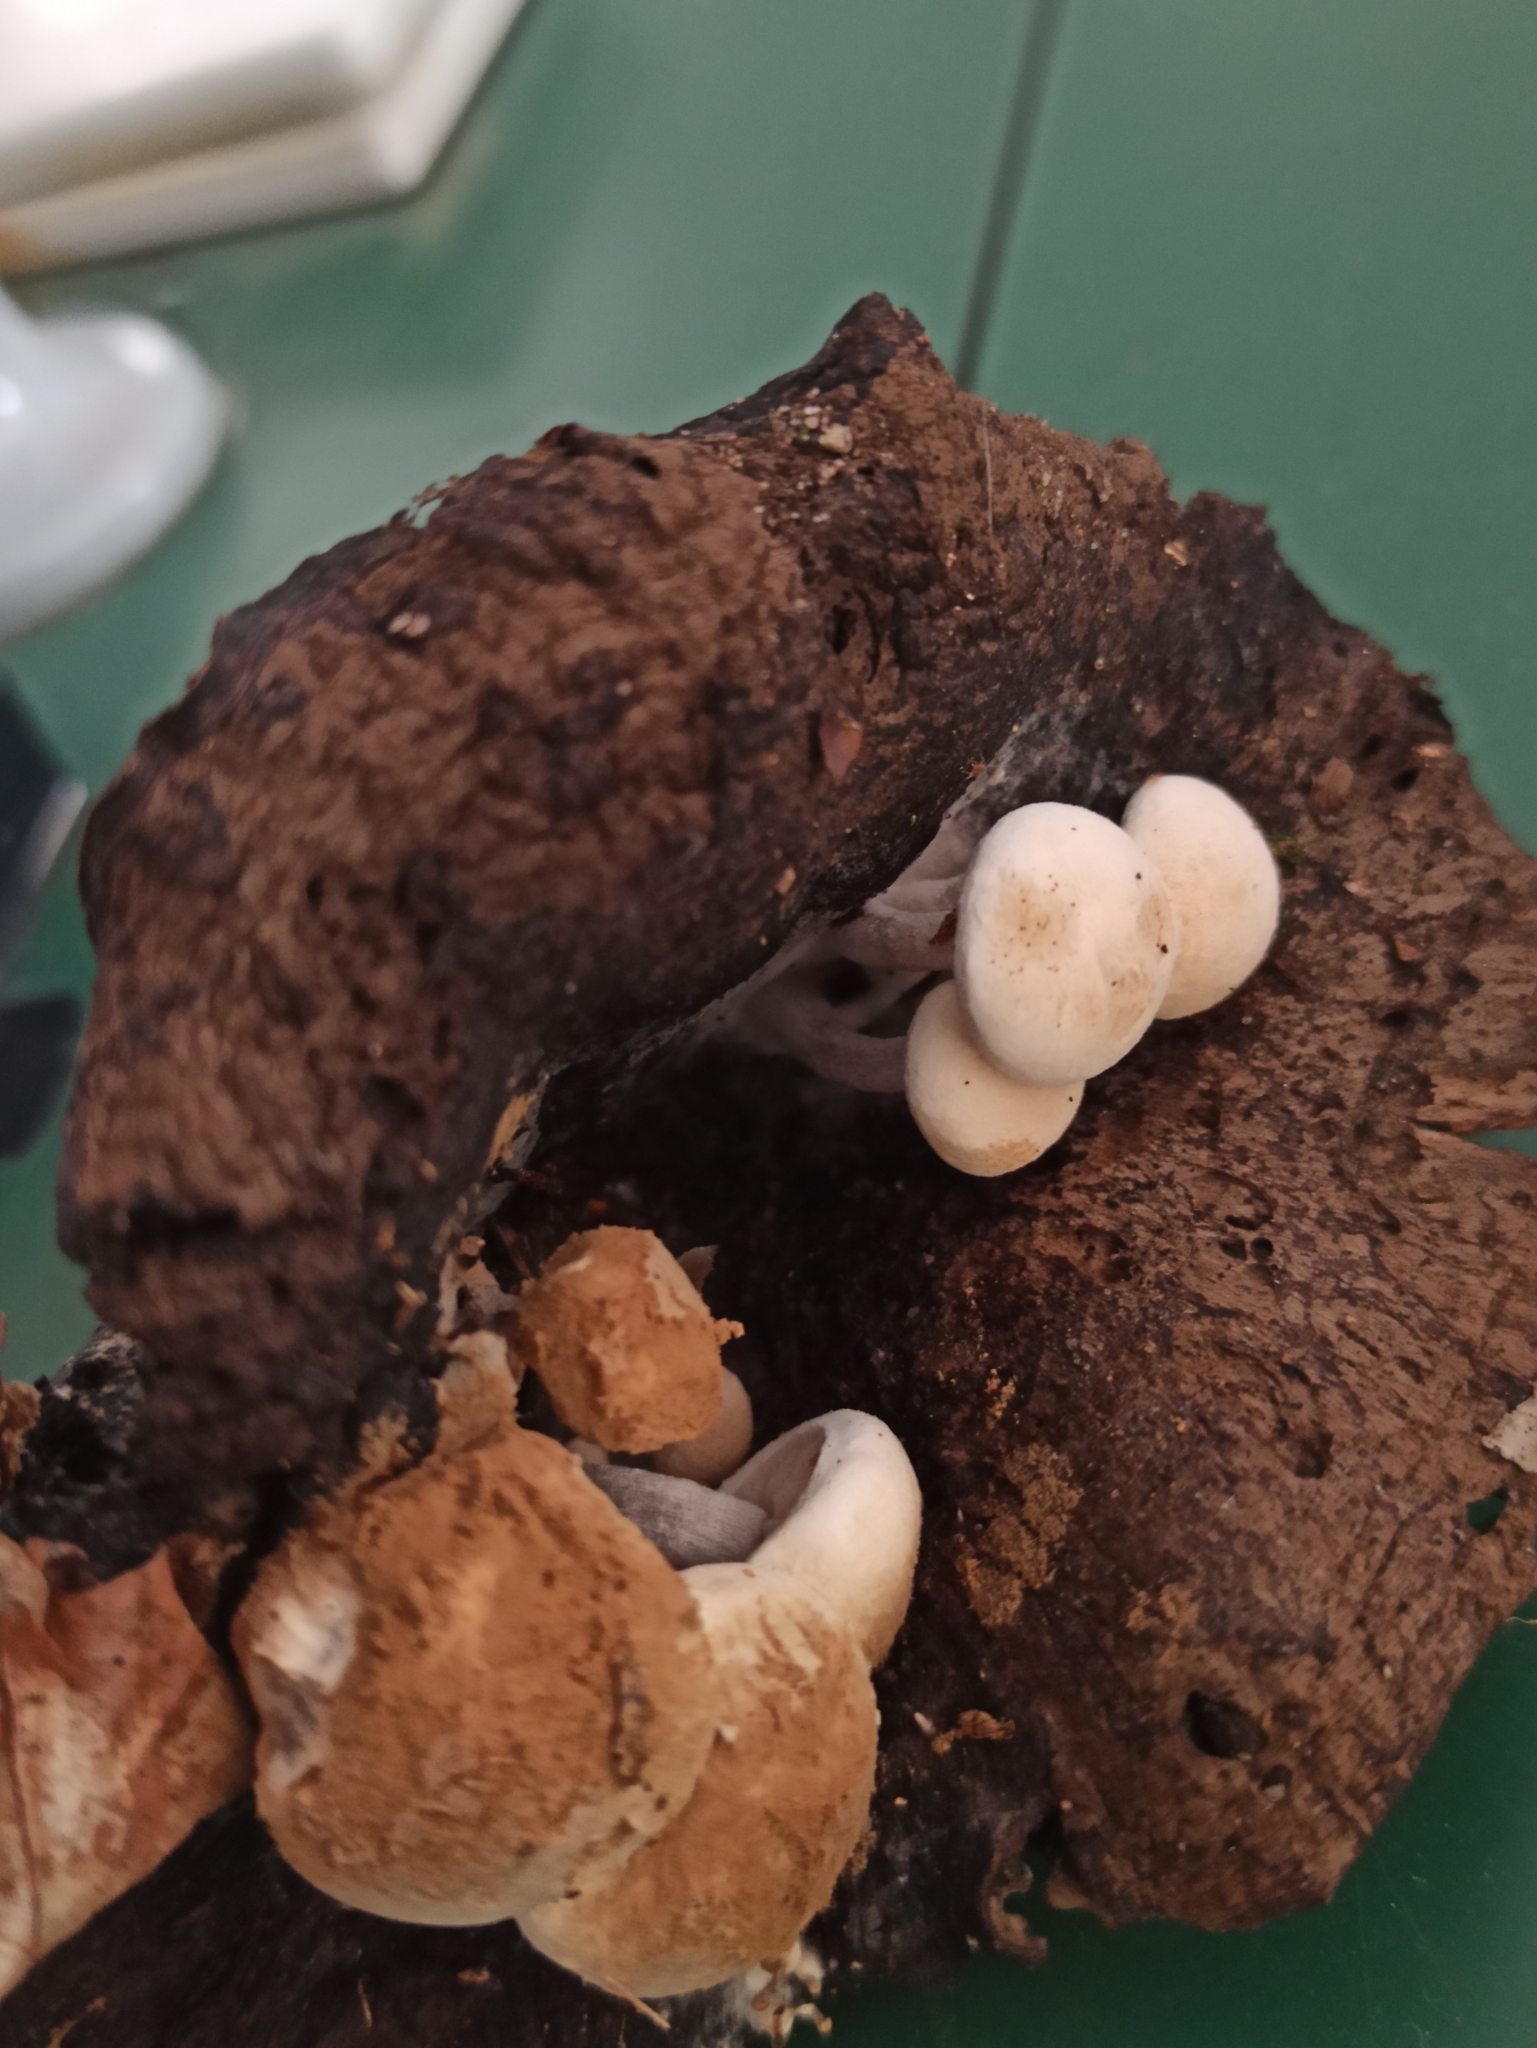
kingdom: Fungi
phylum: Basidiomycota
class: Agaricomycetes
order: Agaricales
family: Lyophyllaceae
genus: Asterophora
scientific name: Asterophora lycoperdoides
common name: Pick-a-back toadstool
